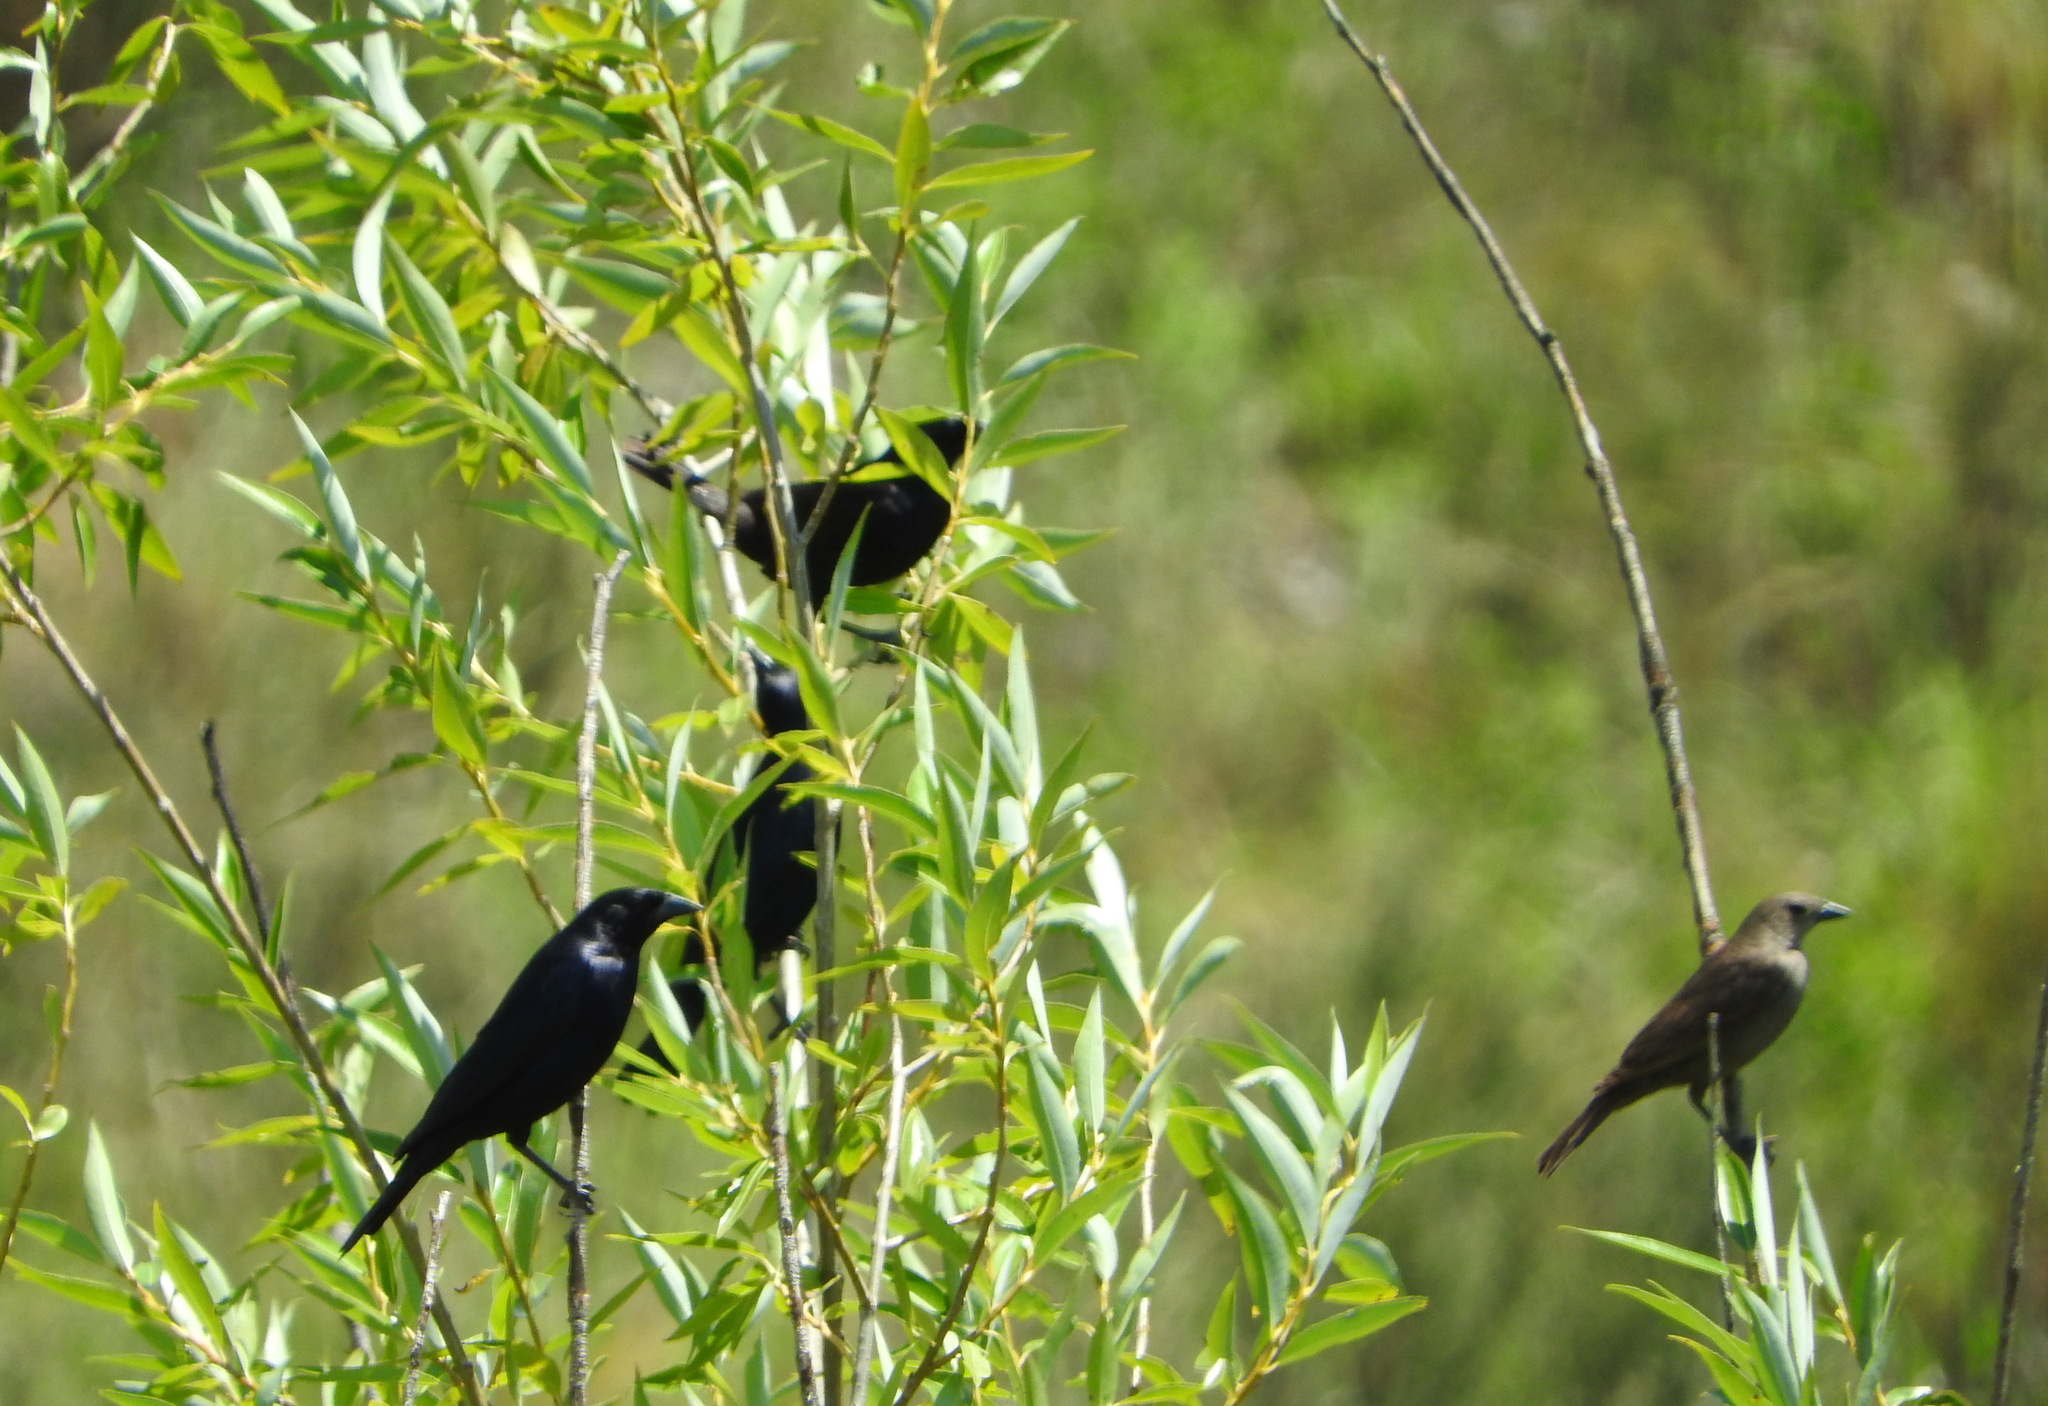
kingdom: Animalia
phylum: Chordata
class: Aves
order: Passeriformes
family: Icteridae
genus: Molothrus
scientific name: Molothrus bonariensis
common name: Shiny cowbird
